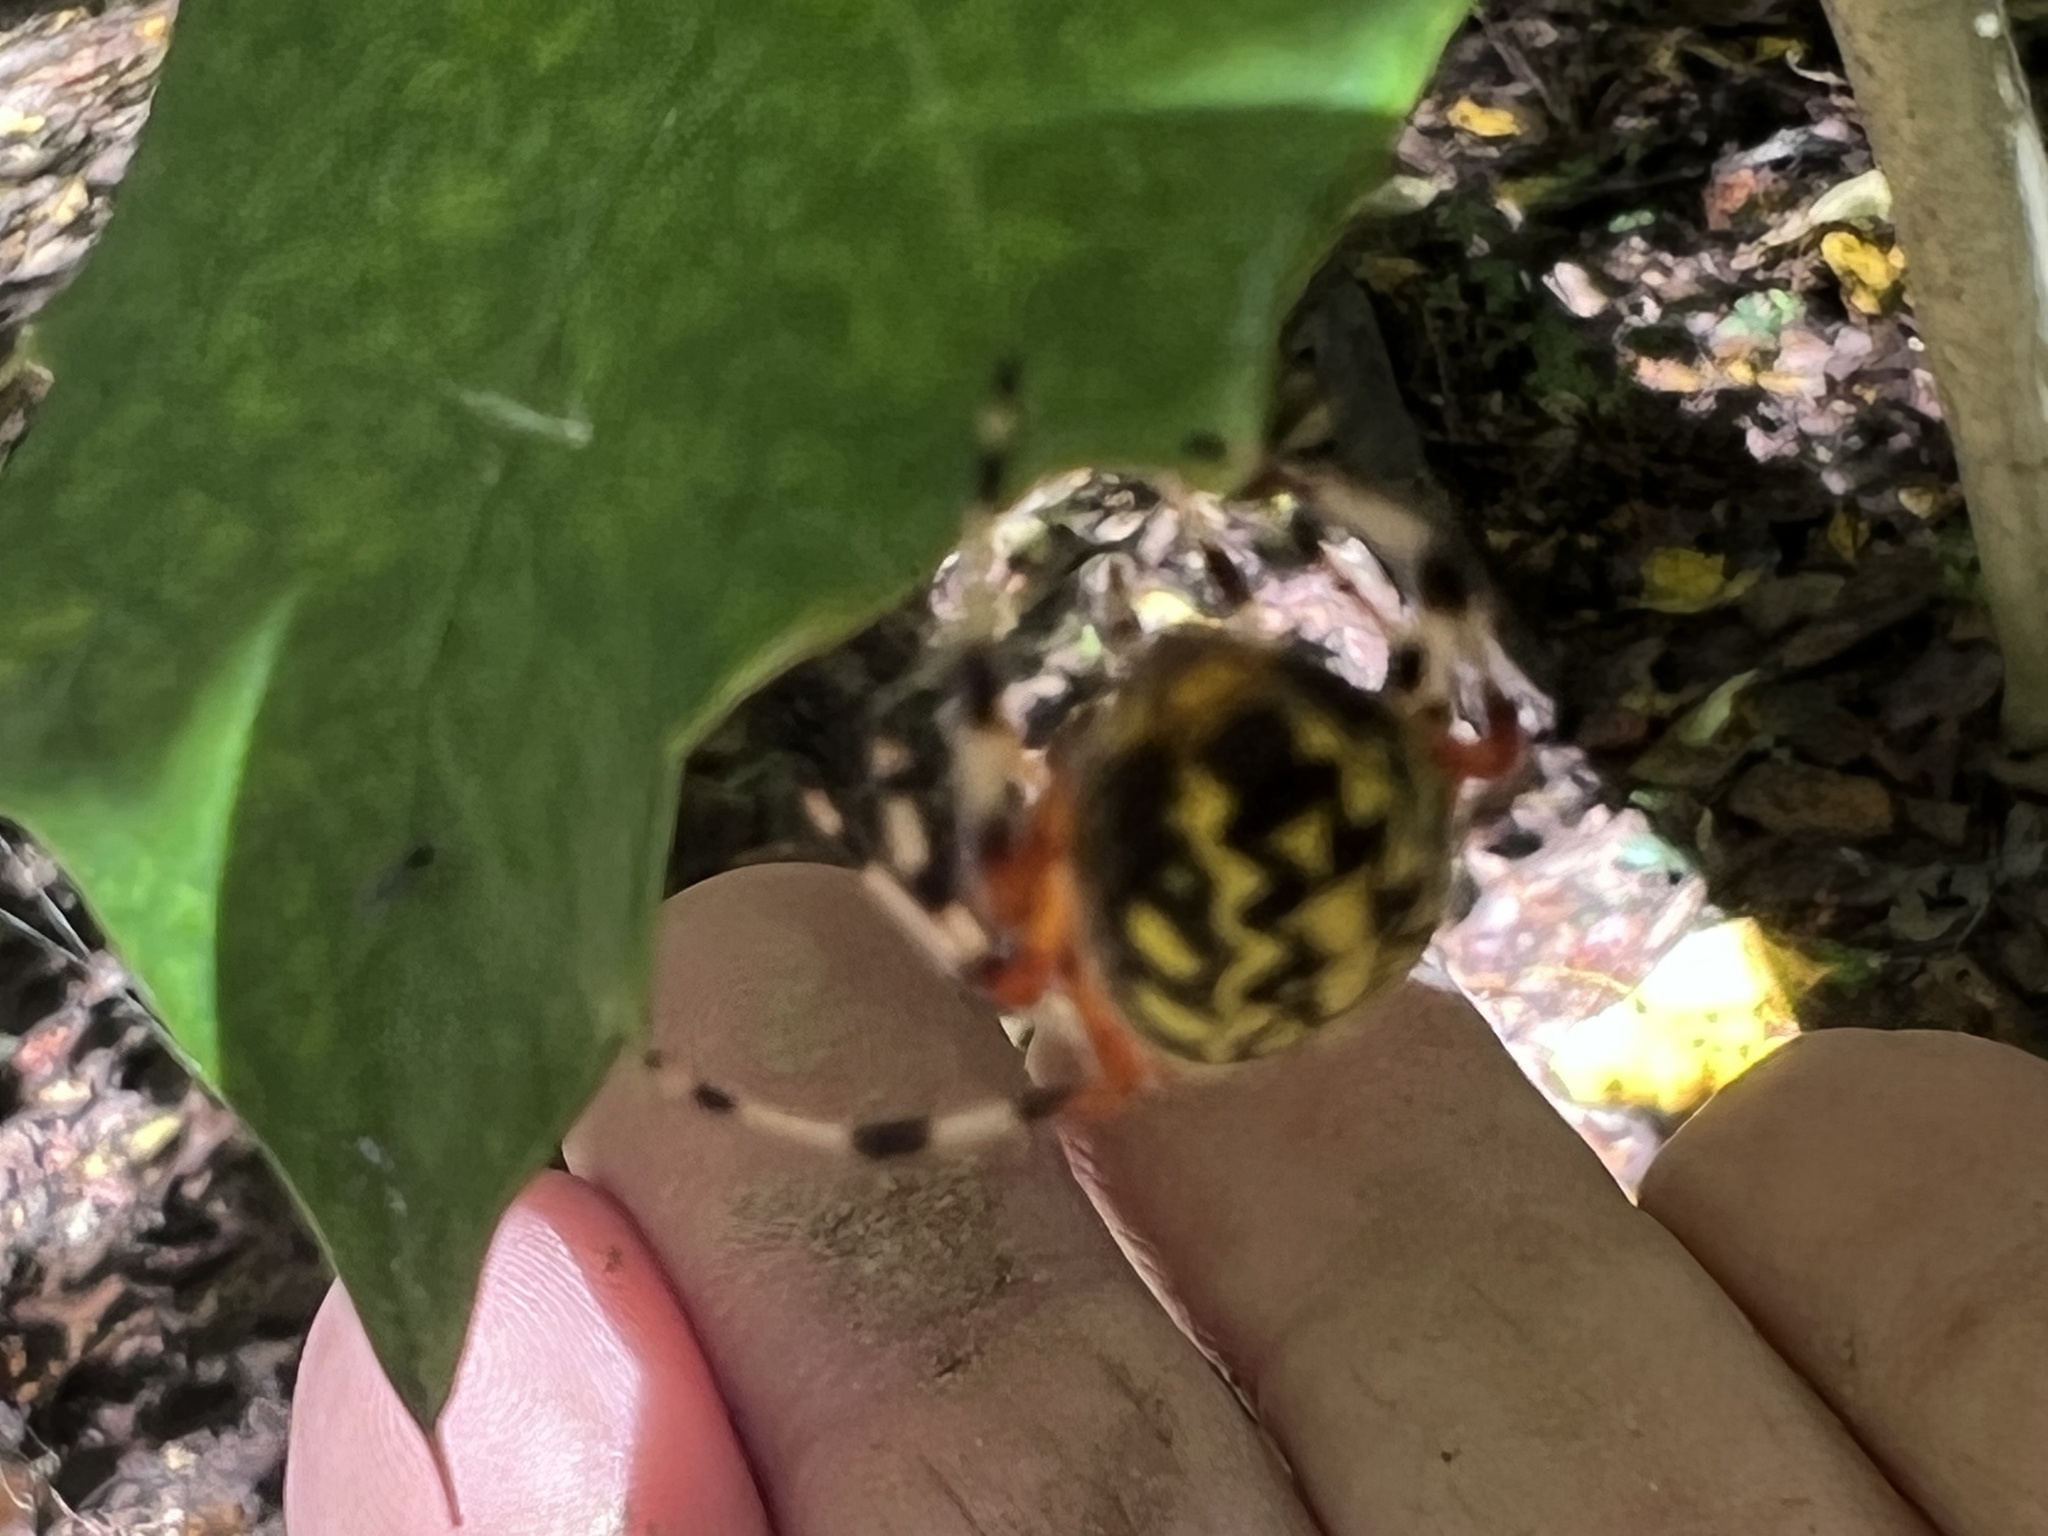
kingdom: Animalia
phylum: Arthropoda
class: Arachnida
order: Araneae
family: Araneidae
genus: Araneus
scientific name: Araneus marmoreus
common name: Marbled orbweaver
